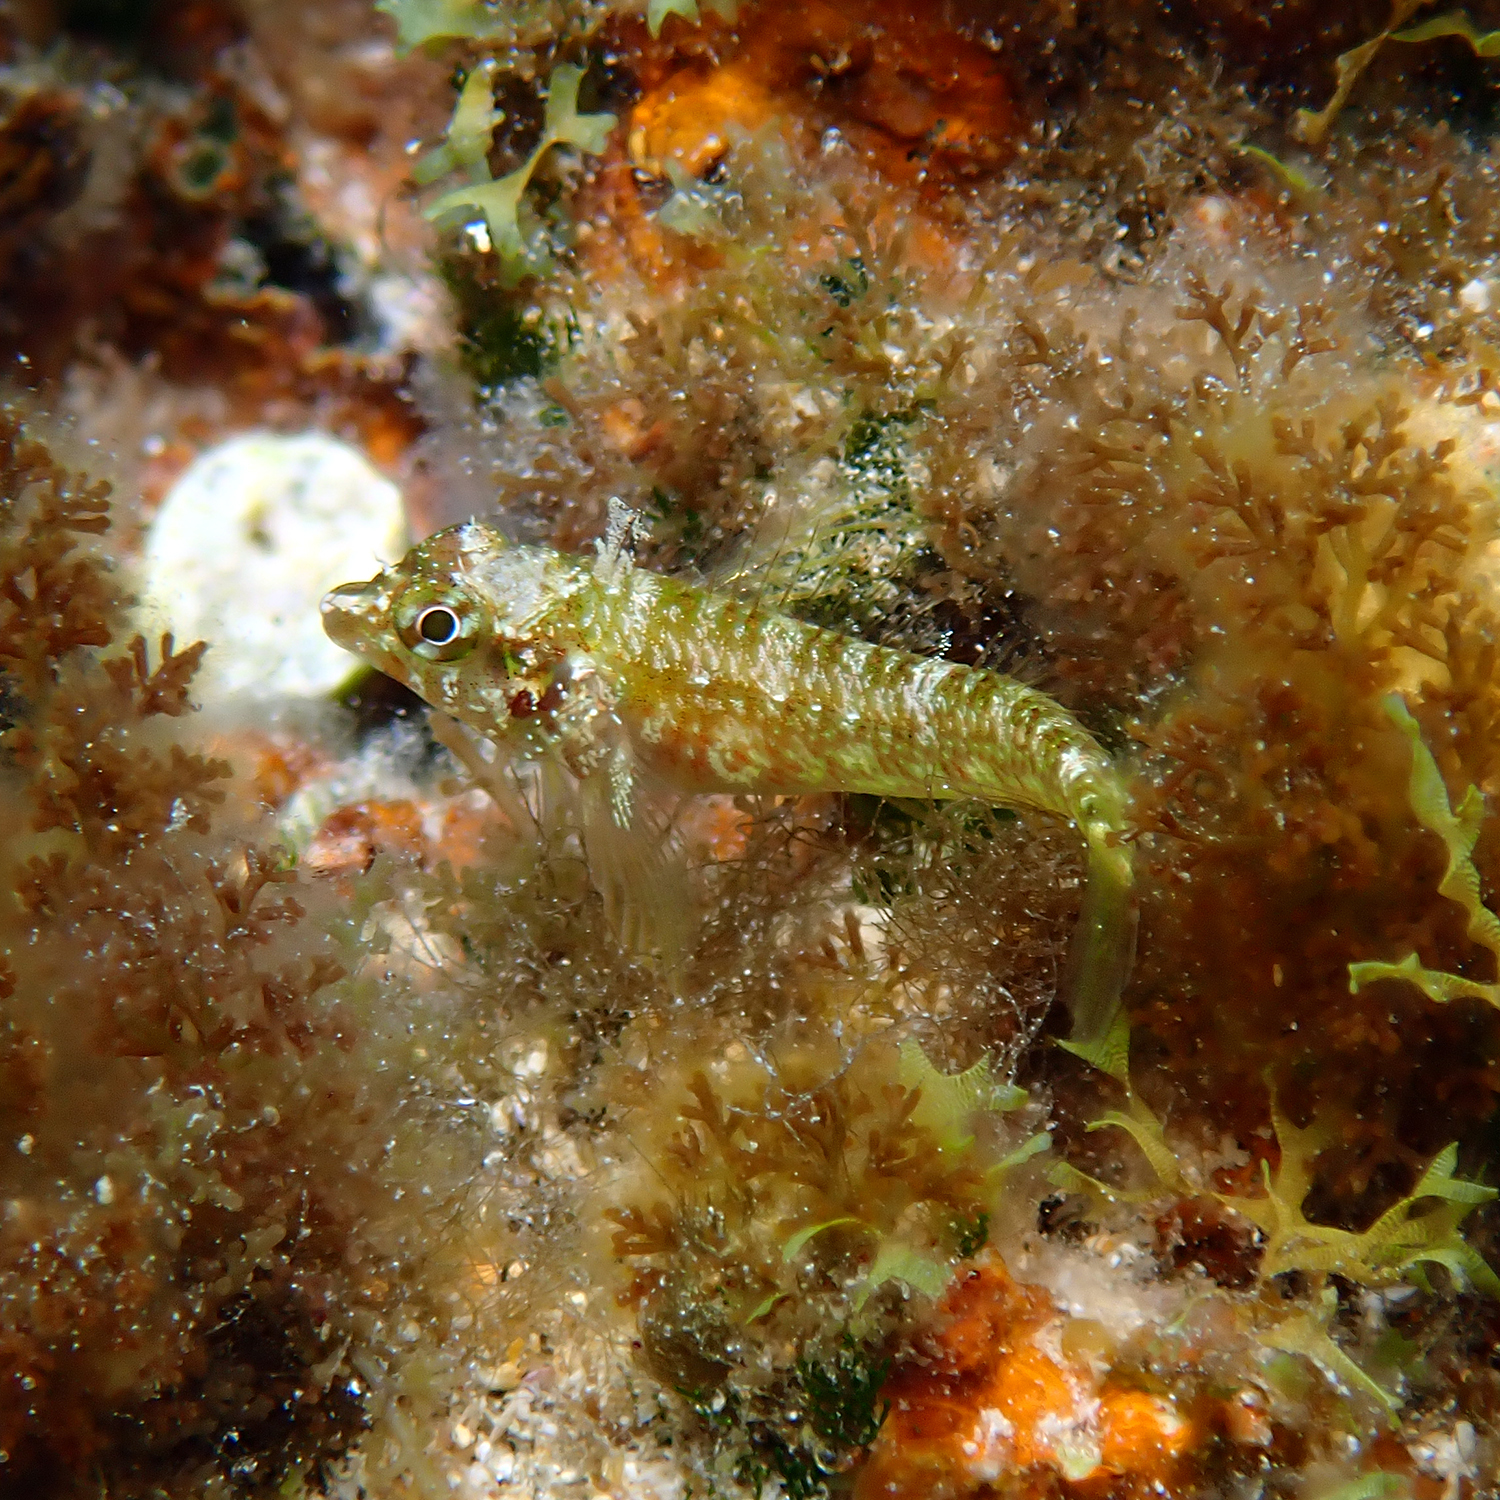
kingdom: Animalia
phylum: Chordata
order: Perciformes
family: Tripterygiidae
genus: Enneapterygius
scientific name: Enneapterygius rufopileus
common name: Lord howe black-head triplefin
